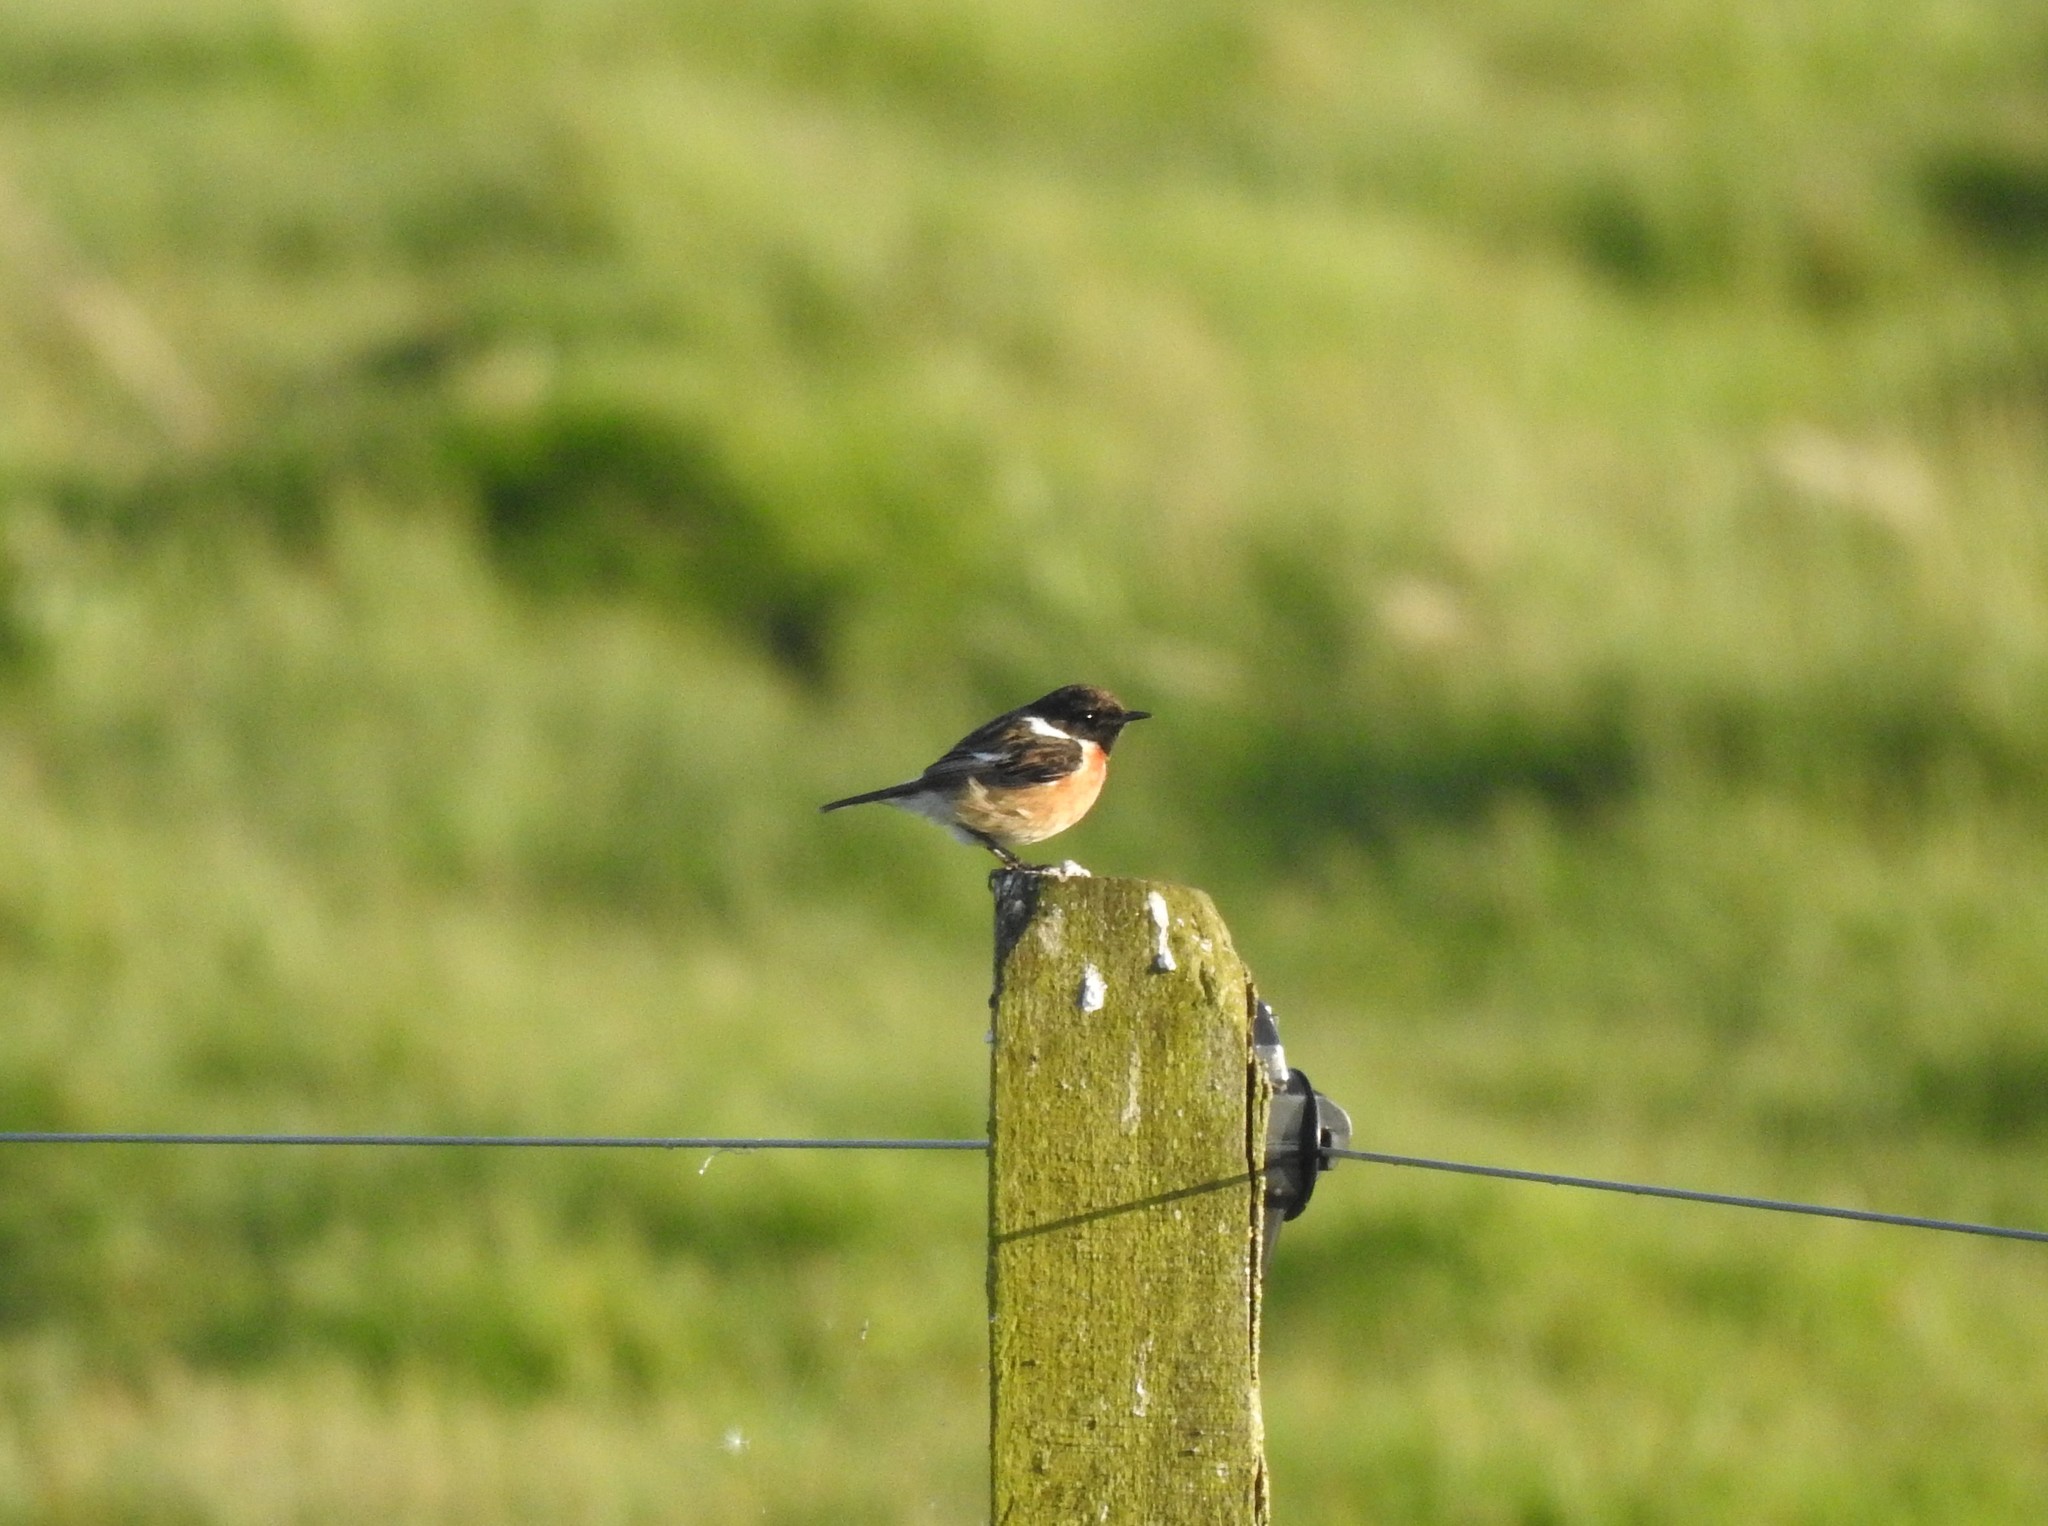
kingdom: Animalia
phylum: Chordata
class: Aves
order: Passeriformes
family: Muscicapidae
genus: Saxicola
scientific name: Saxicola rubicola
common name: European stonechat
